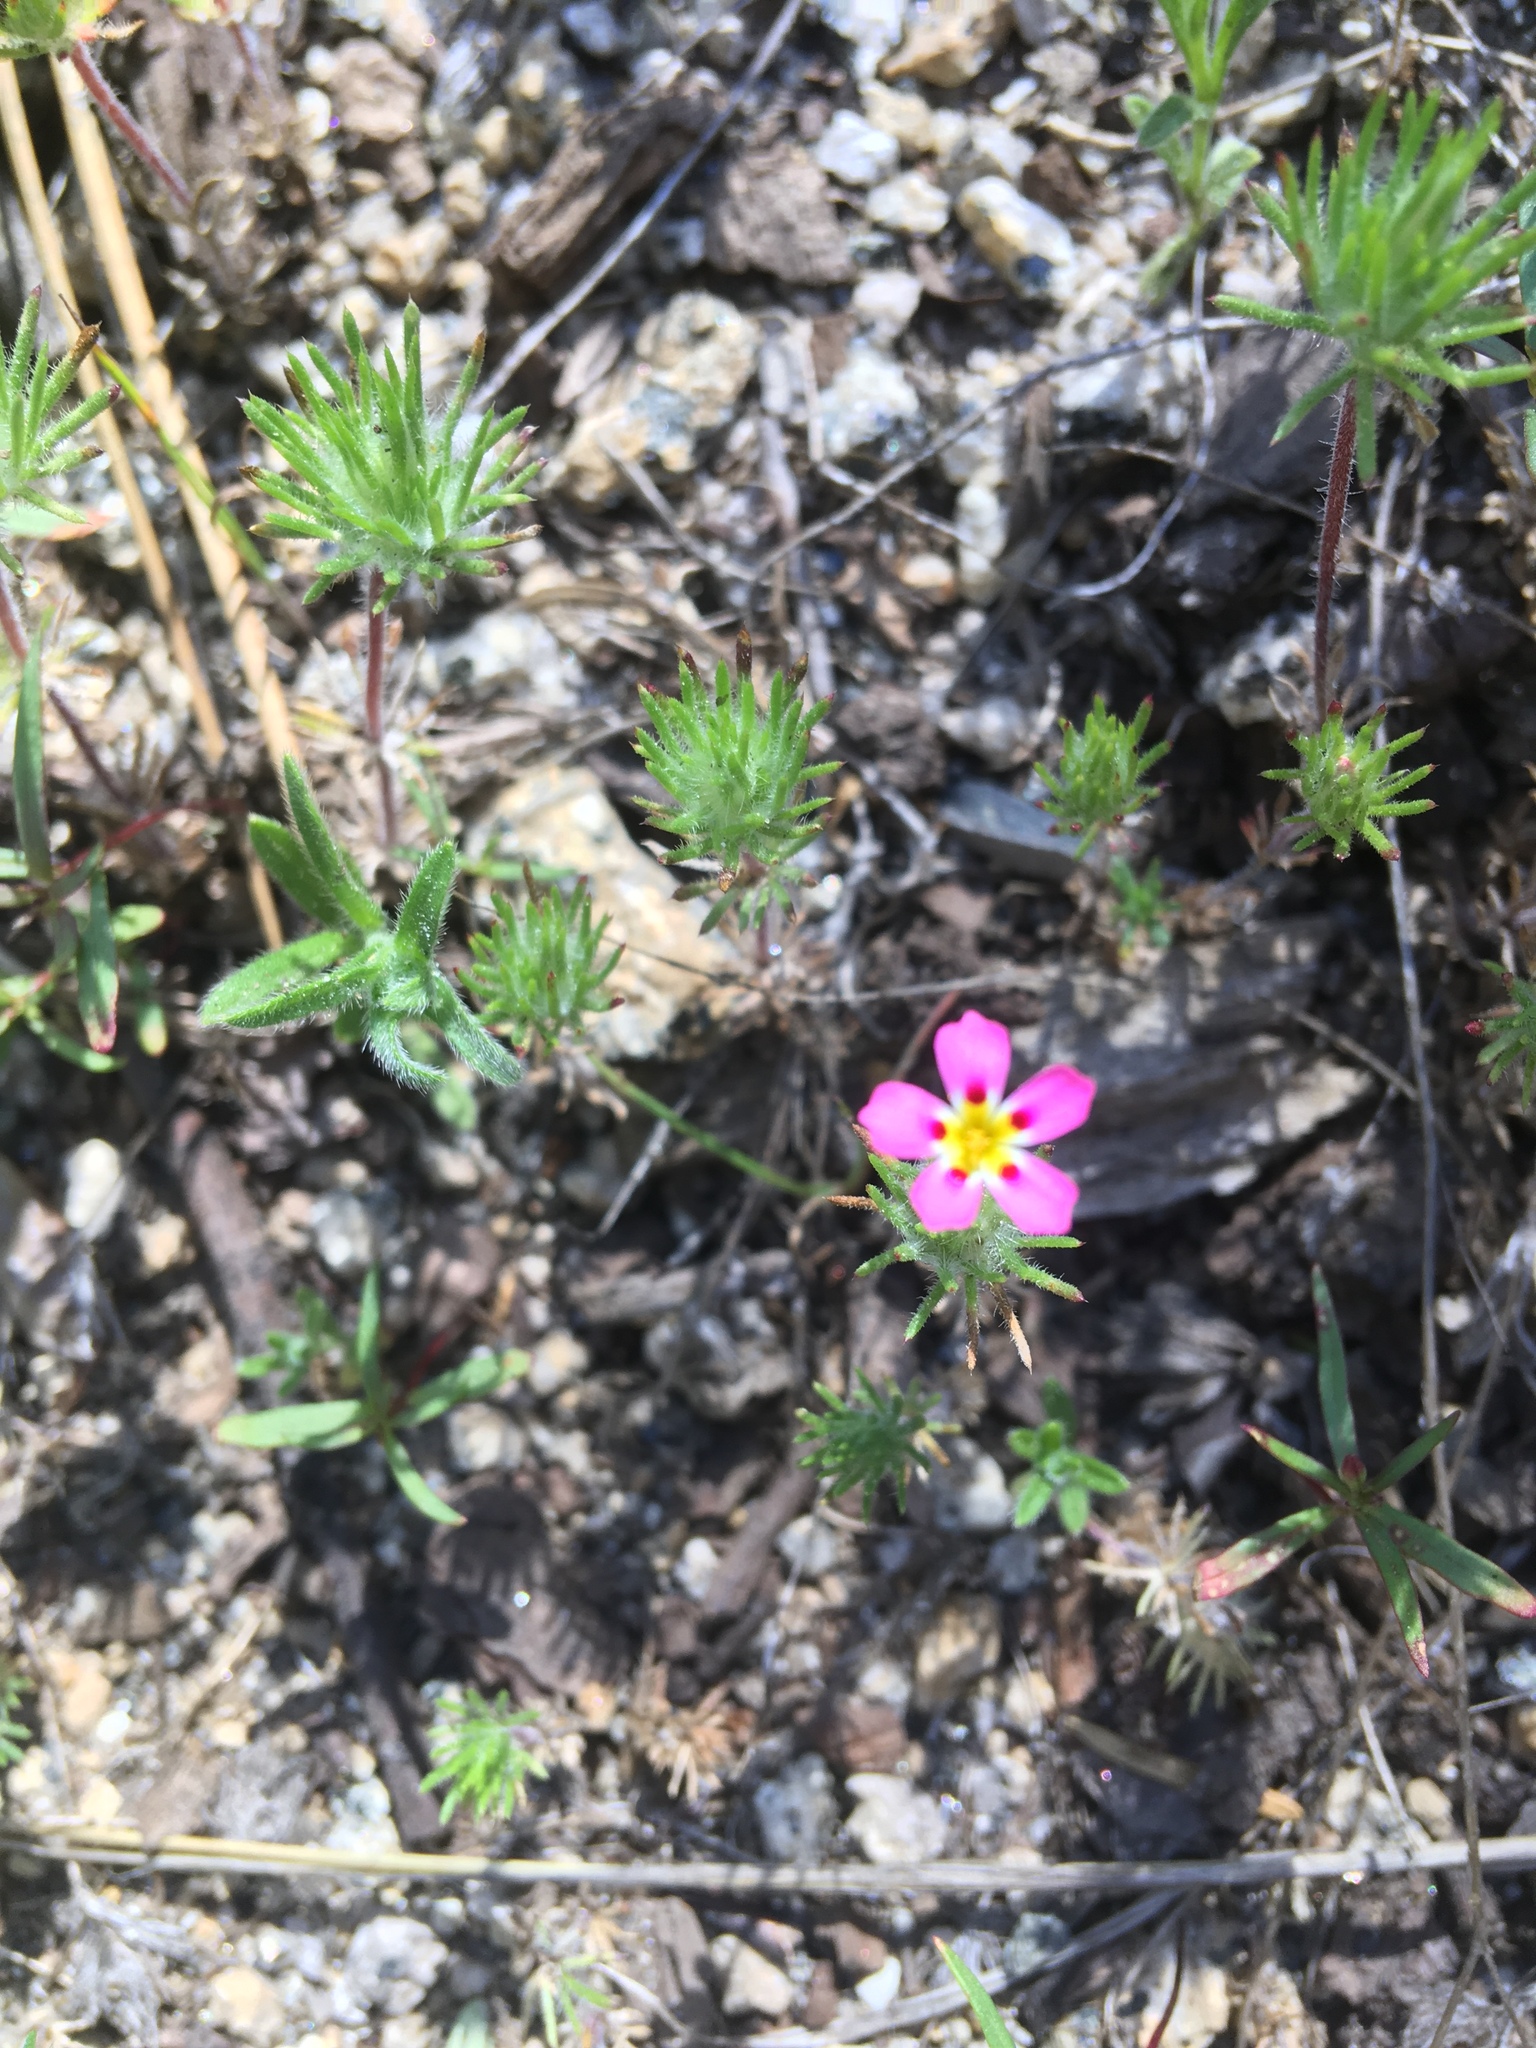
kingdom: Plantae
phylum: Tracheophyta
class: Magnoliopsida
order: Ericales
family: Polemoniaceae
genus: Leptosiphon
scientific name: Leptosiphon ciliatus
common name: Whiskerbrush
